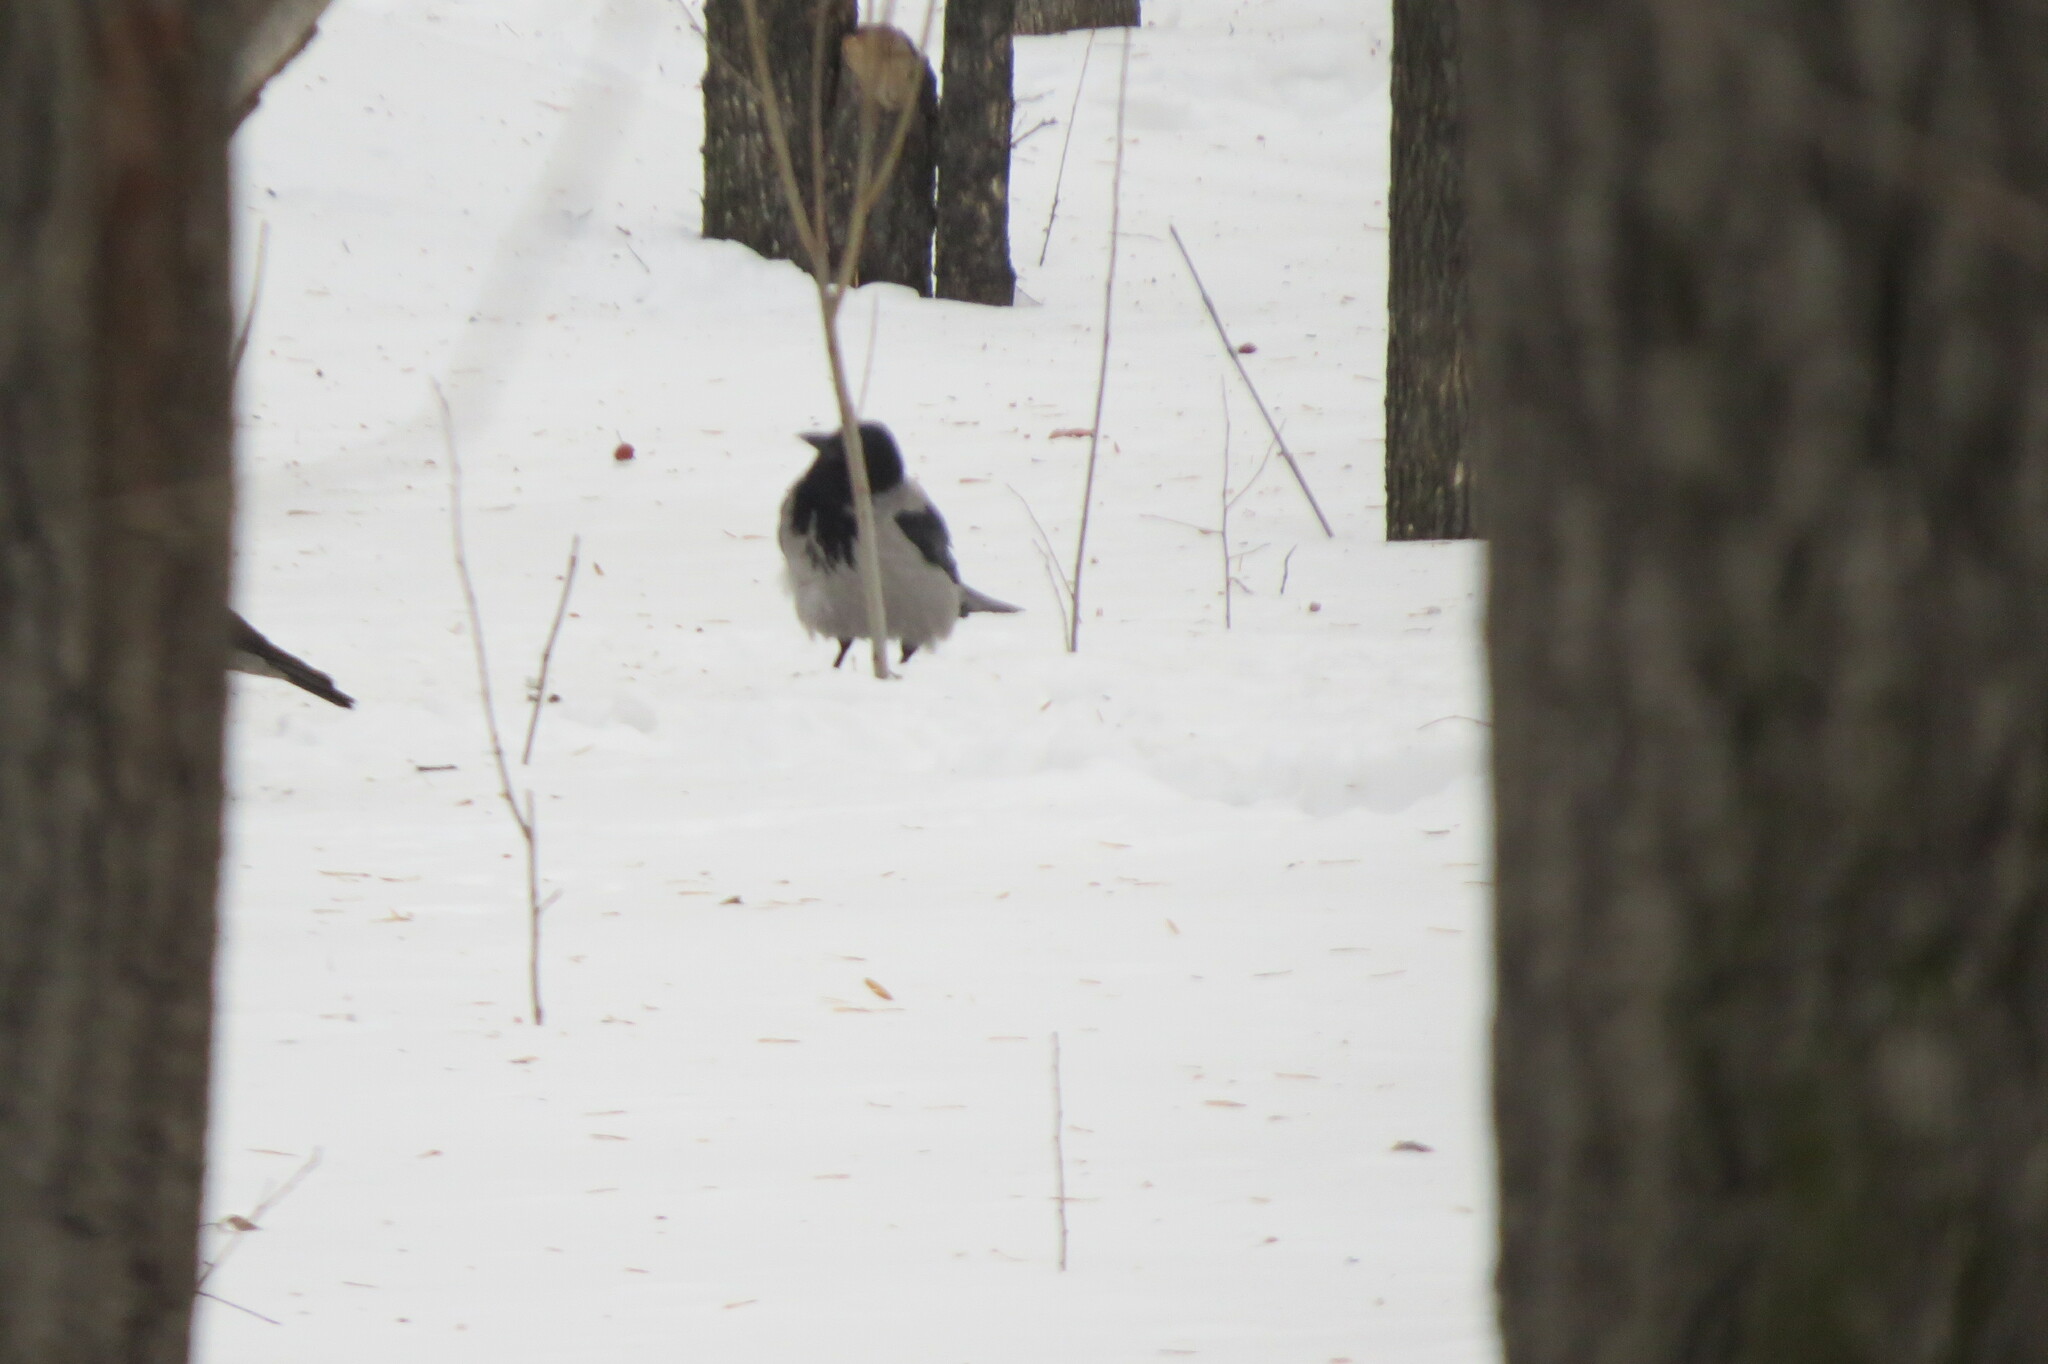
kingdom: Animalia
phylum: Chordata
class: Aves
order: Passeriformes
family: Corvidae
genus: Corvus
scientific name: Corvus cornix
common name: Hooded crow
